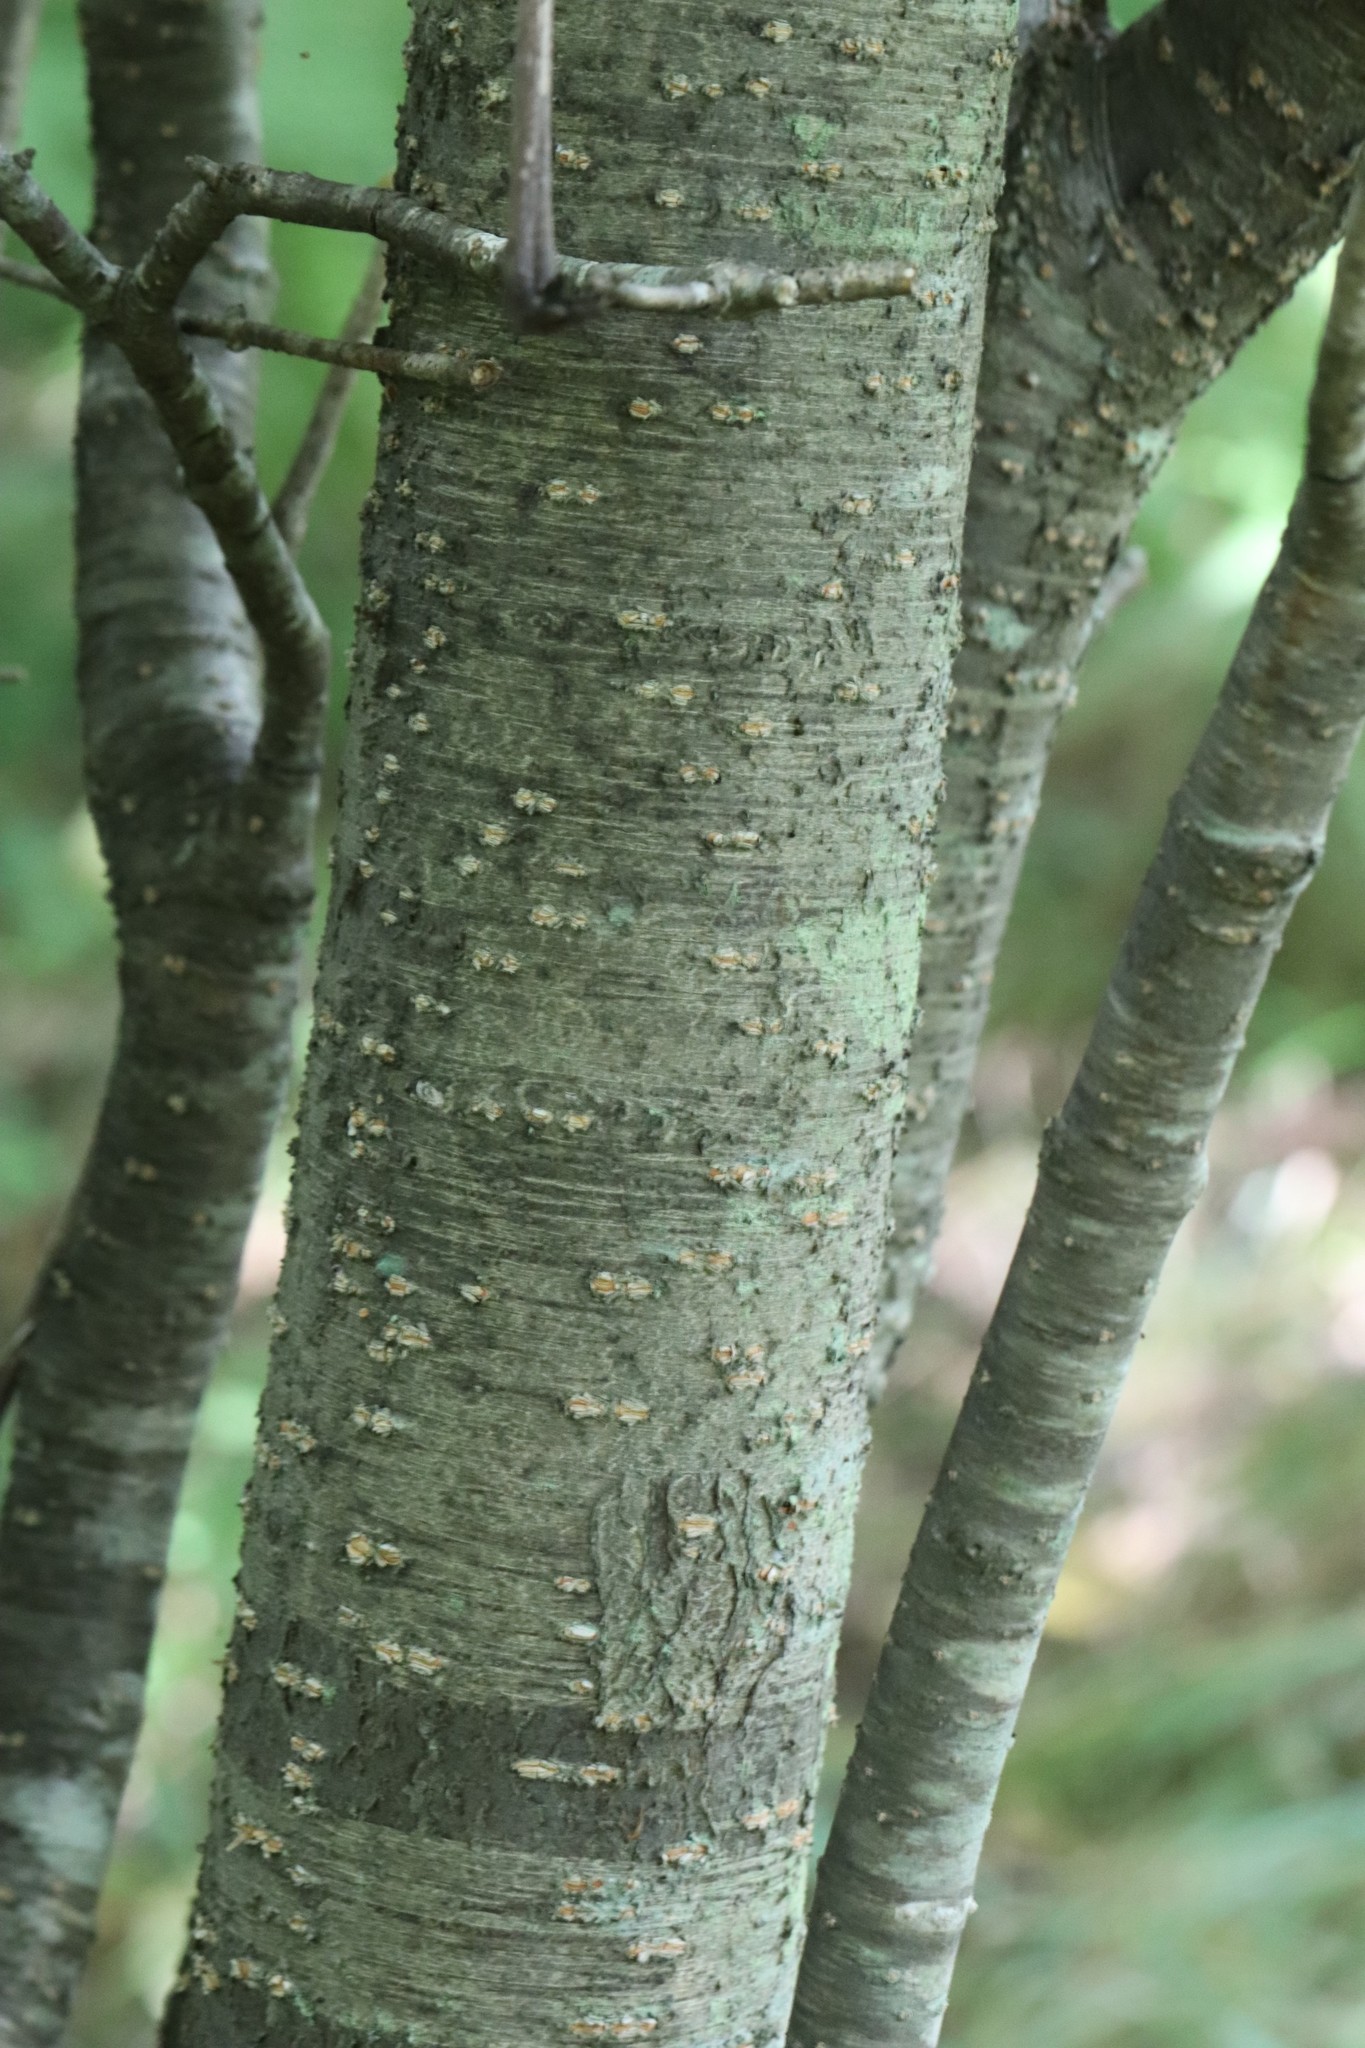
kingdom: Plantae
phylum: Tracheophyta
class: Magnoliopsida
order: Lamiales
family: Oleaceae
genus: Syringa
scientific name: Syringa reticulata
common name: Japanese tree lilac
